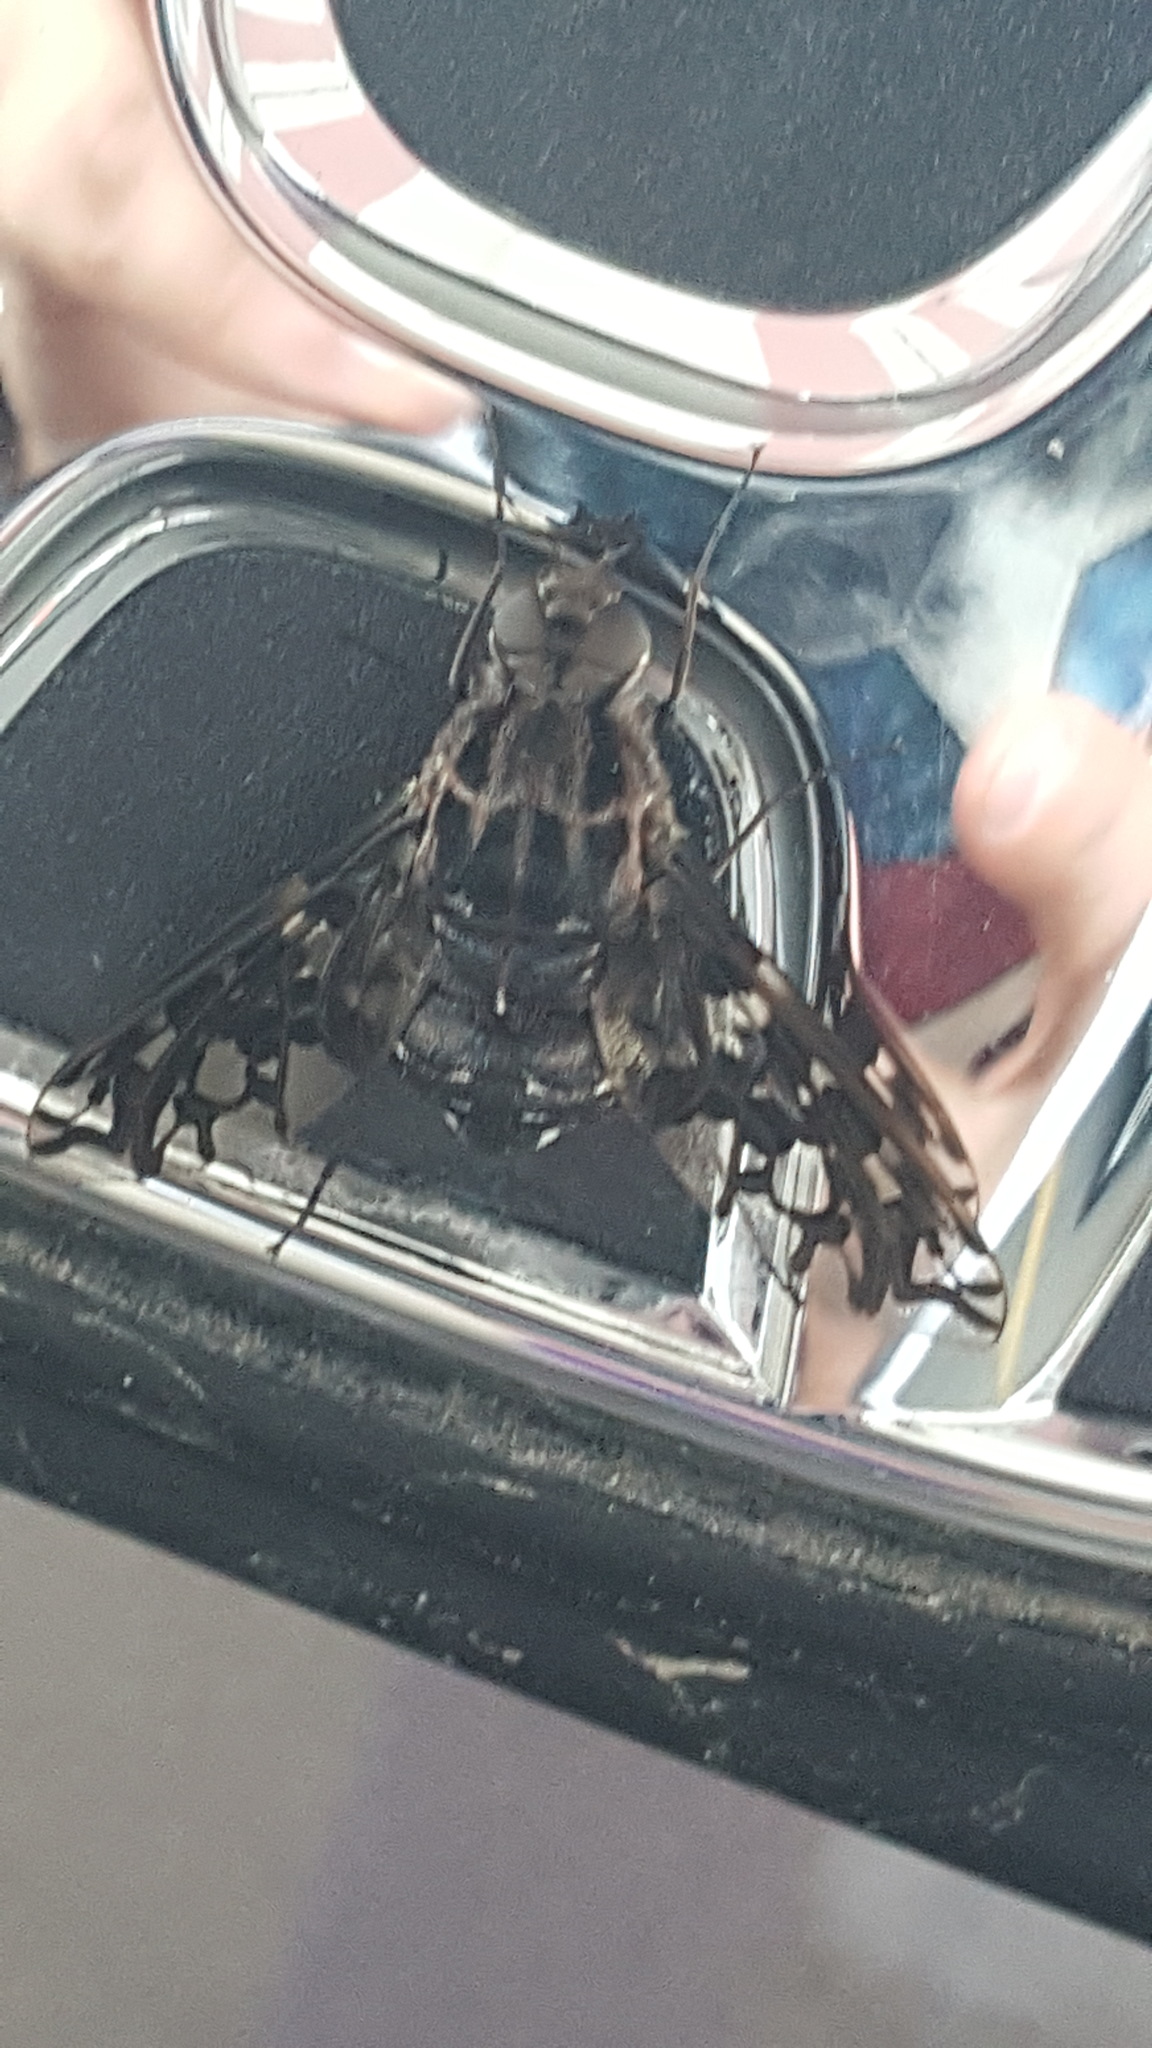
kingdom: Animalia
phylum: Arthropoda
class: Insecta
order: Diptera
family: Bombyliidae
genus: Xenox
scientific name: Xenox tigrinus
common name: Tiger bee fly
